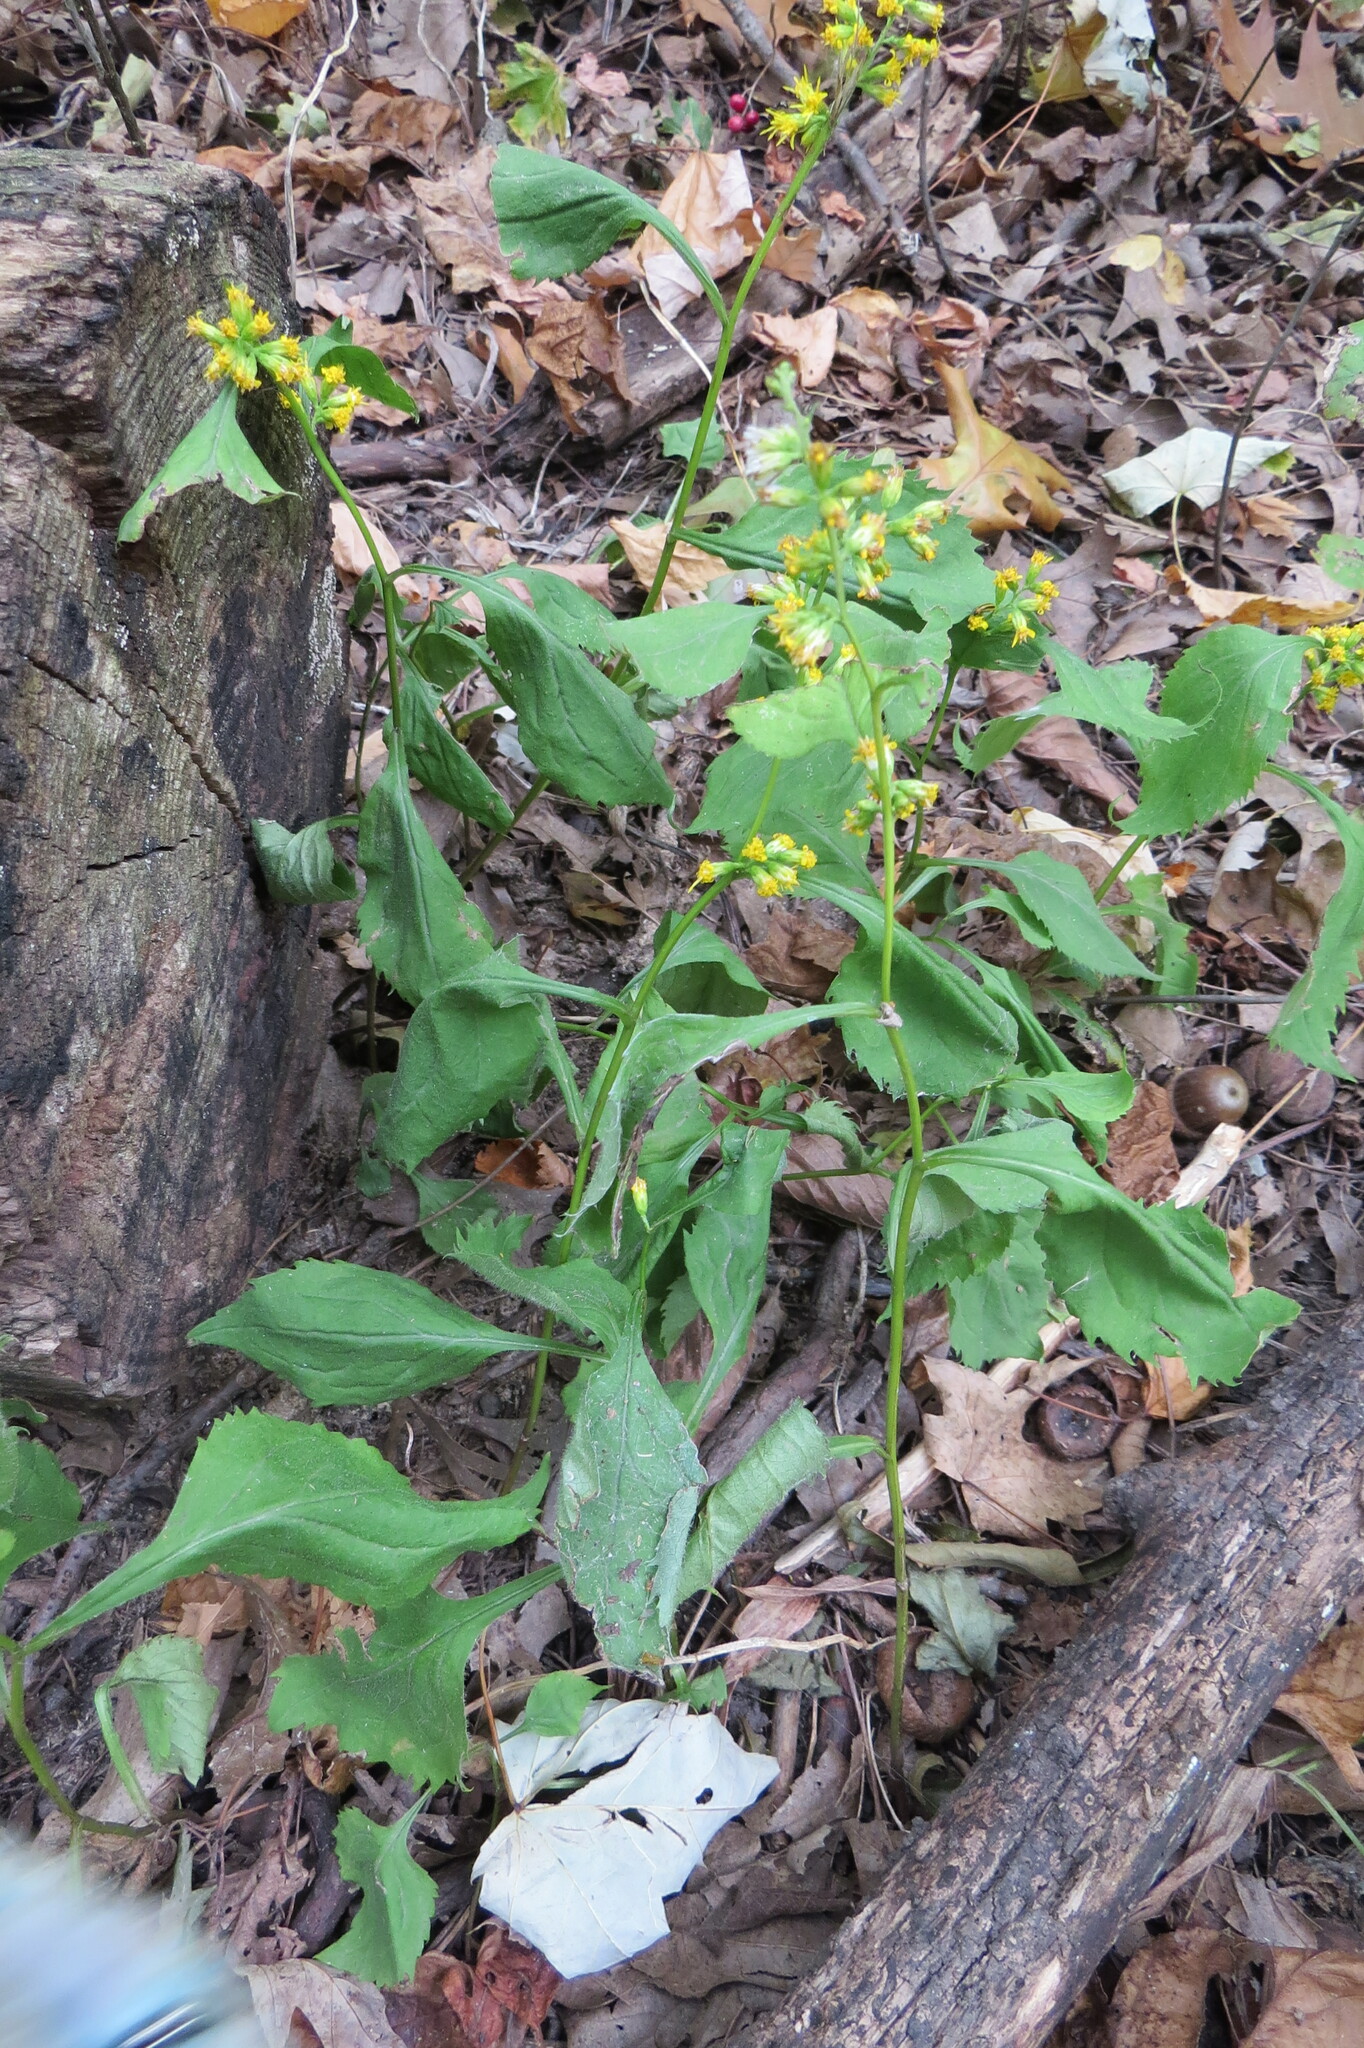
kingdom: Plantae
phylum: Tracheophyta
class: Magnoliopsida
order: Asterales
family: Asteraceae
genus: Solidago
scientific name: Solidago flexicaulis
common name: Zig-zag goldenrod
